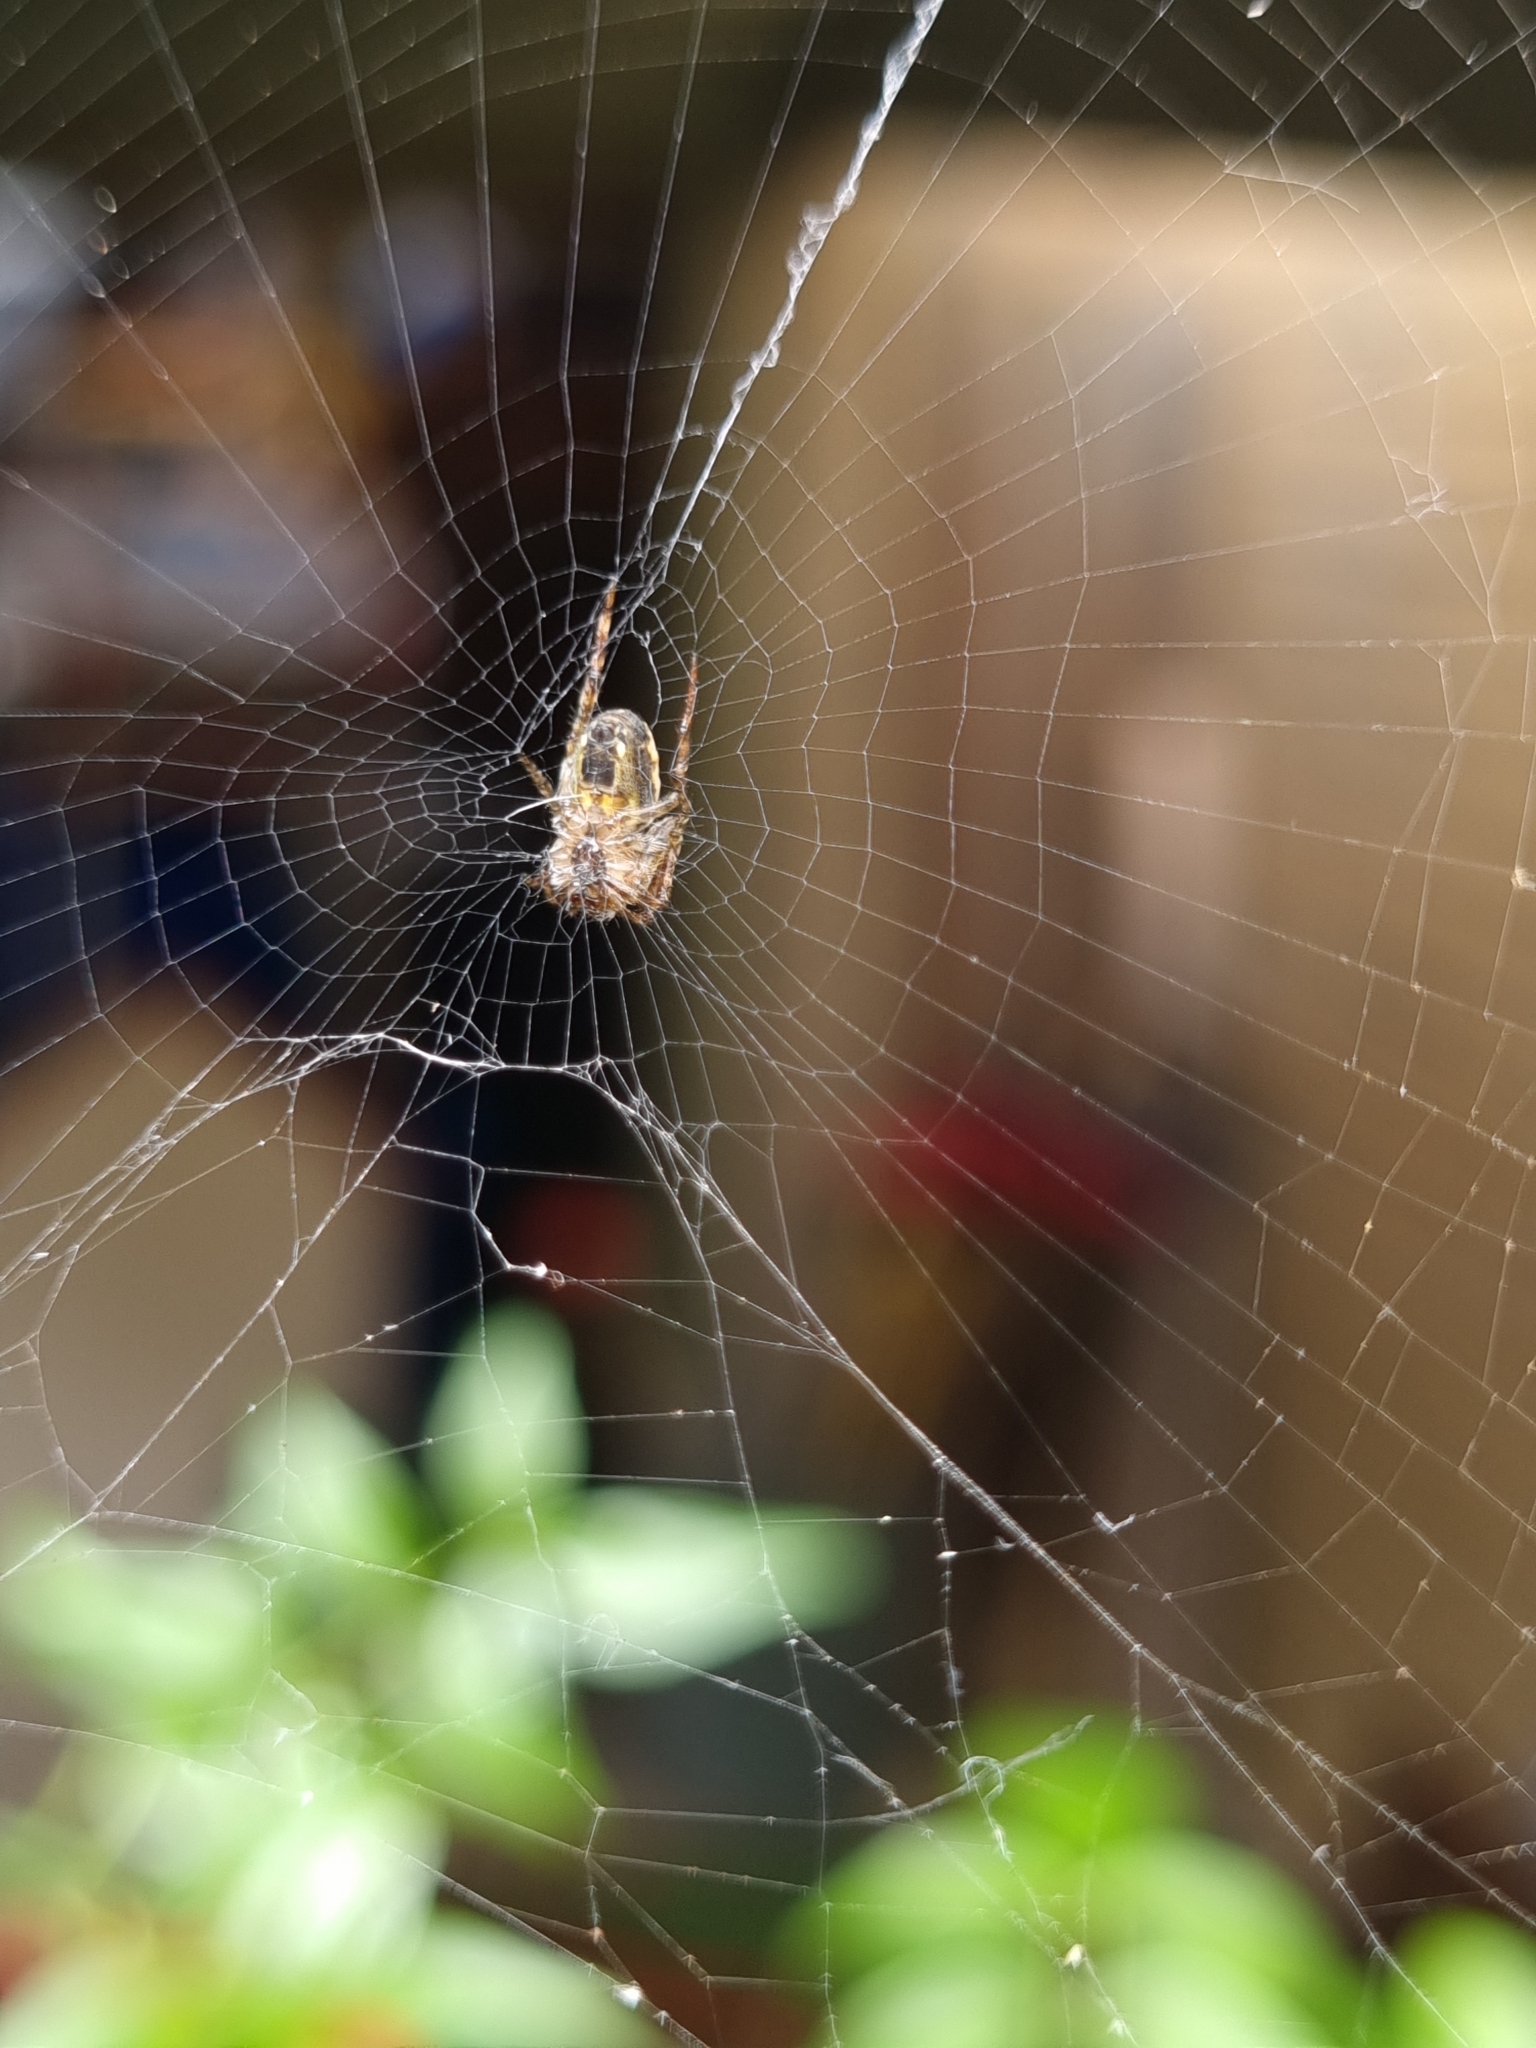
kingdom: Animalia
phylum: Arthropoda
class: Arachnida
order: Araneae
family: Araneidae
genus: Plebs
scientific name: Plebs eburnus
